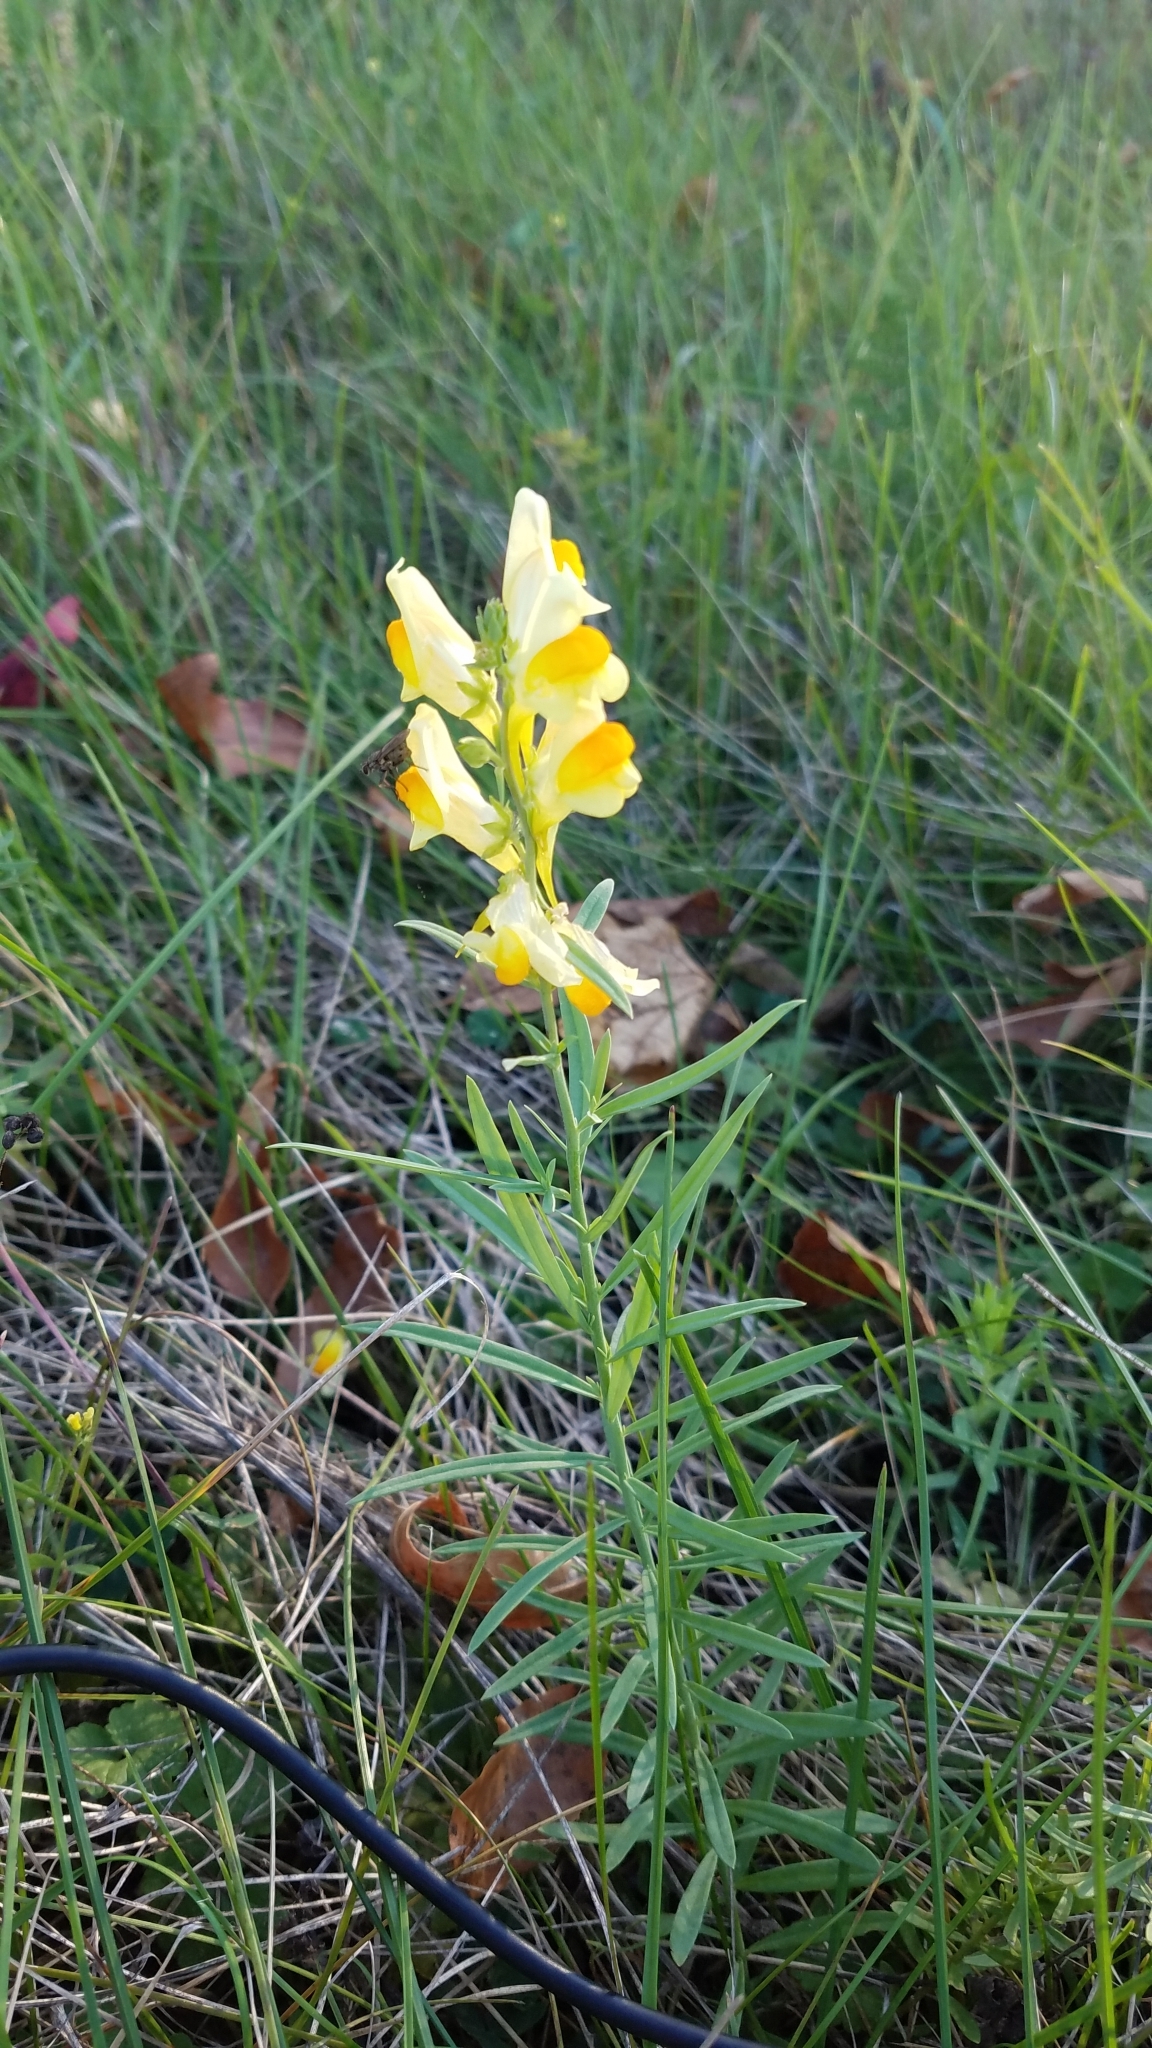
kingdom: Plantae
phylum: Tracheophyta
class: Magnoliopsida
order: Lamiales
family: Plantaginaceae
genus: Linaria
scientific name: Linaria vulgaris
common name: Butter and eggs
